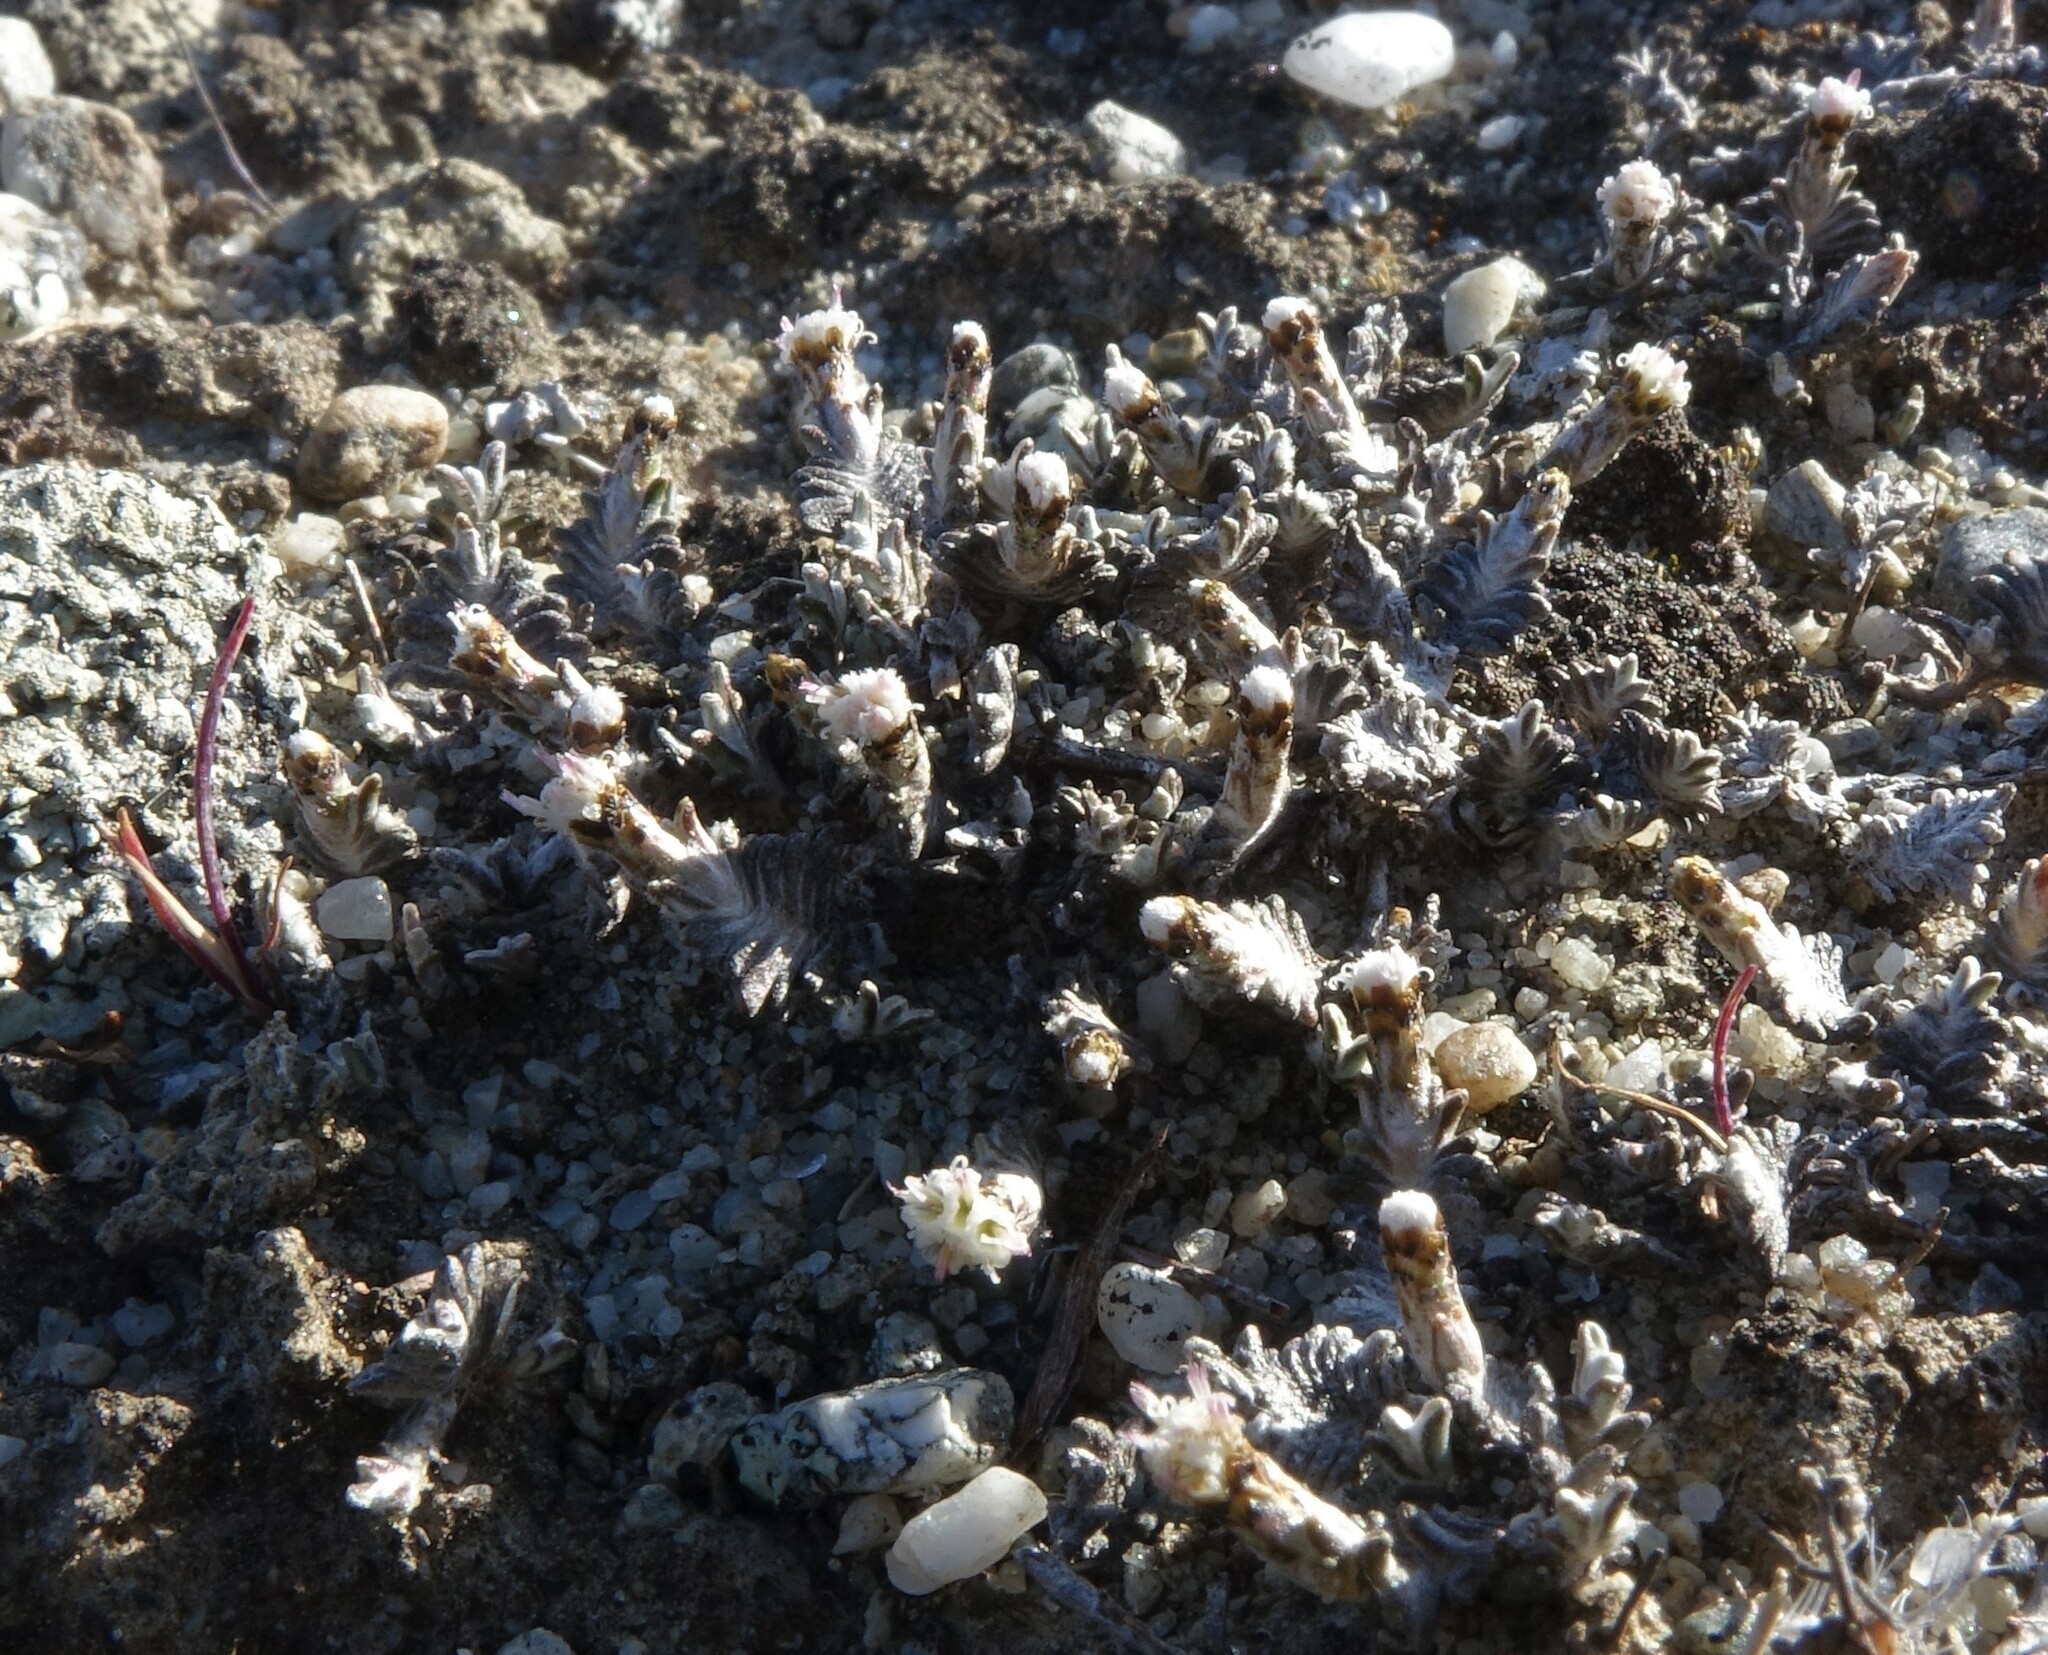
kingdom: Plantae
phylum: Tracheophyta
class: Magnoliopsida
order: Asterales
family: Asteraceae
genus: Raoulia
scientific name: Raoulia monroi
